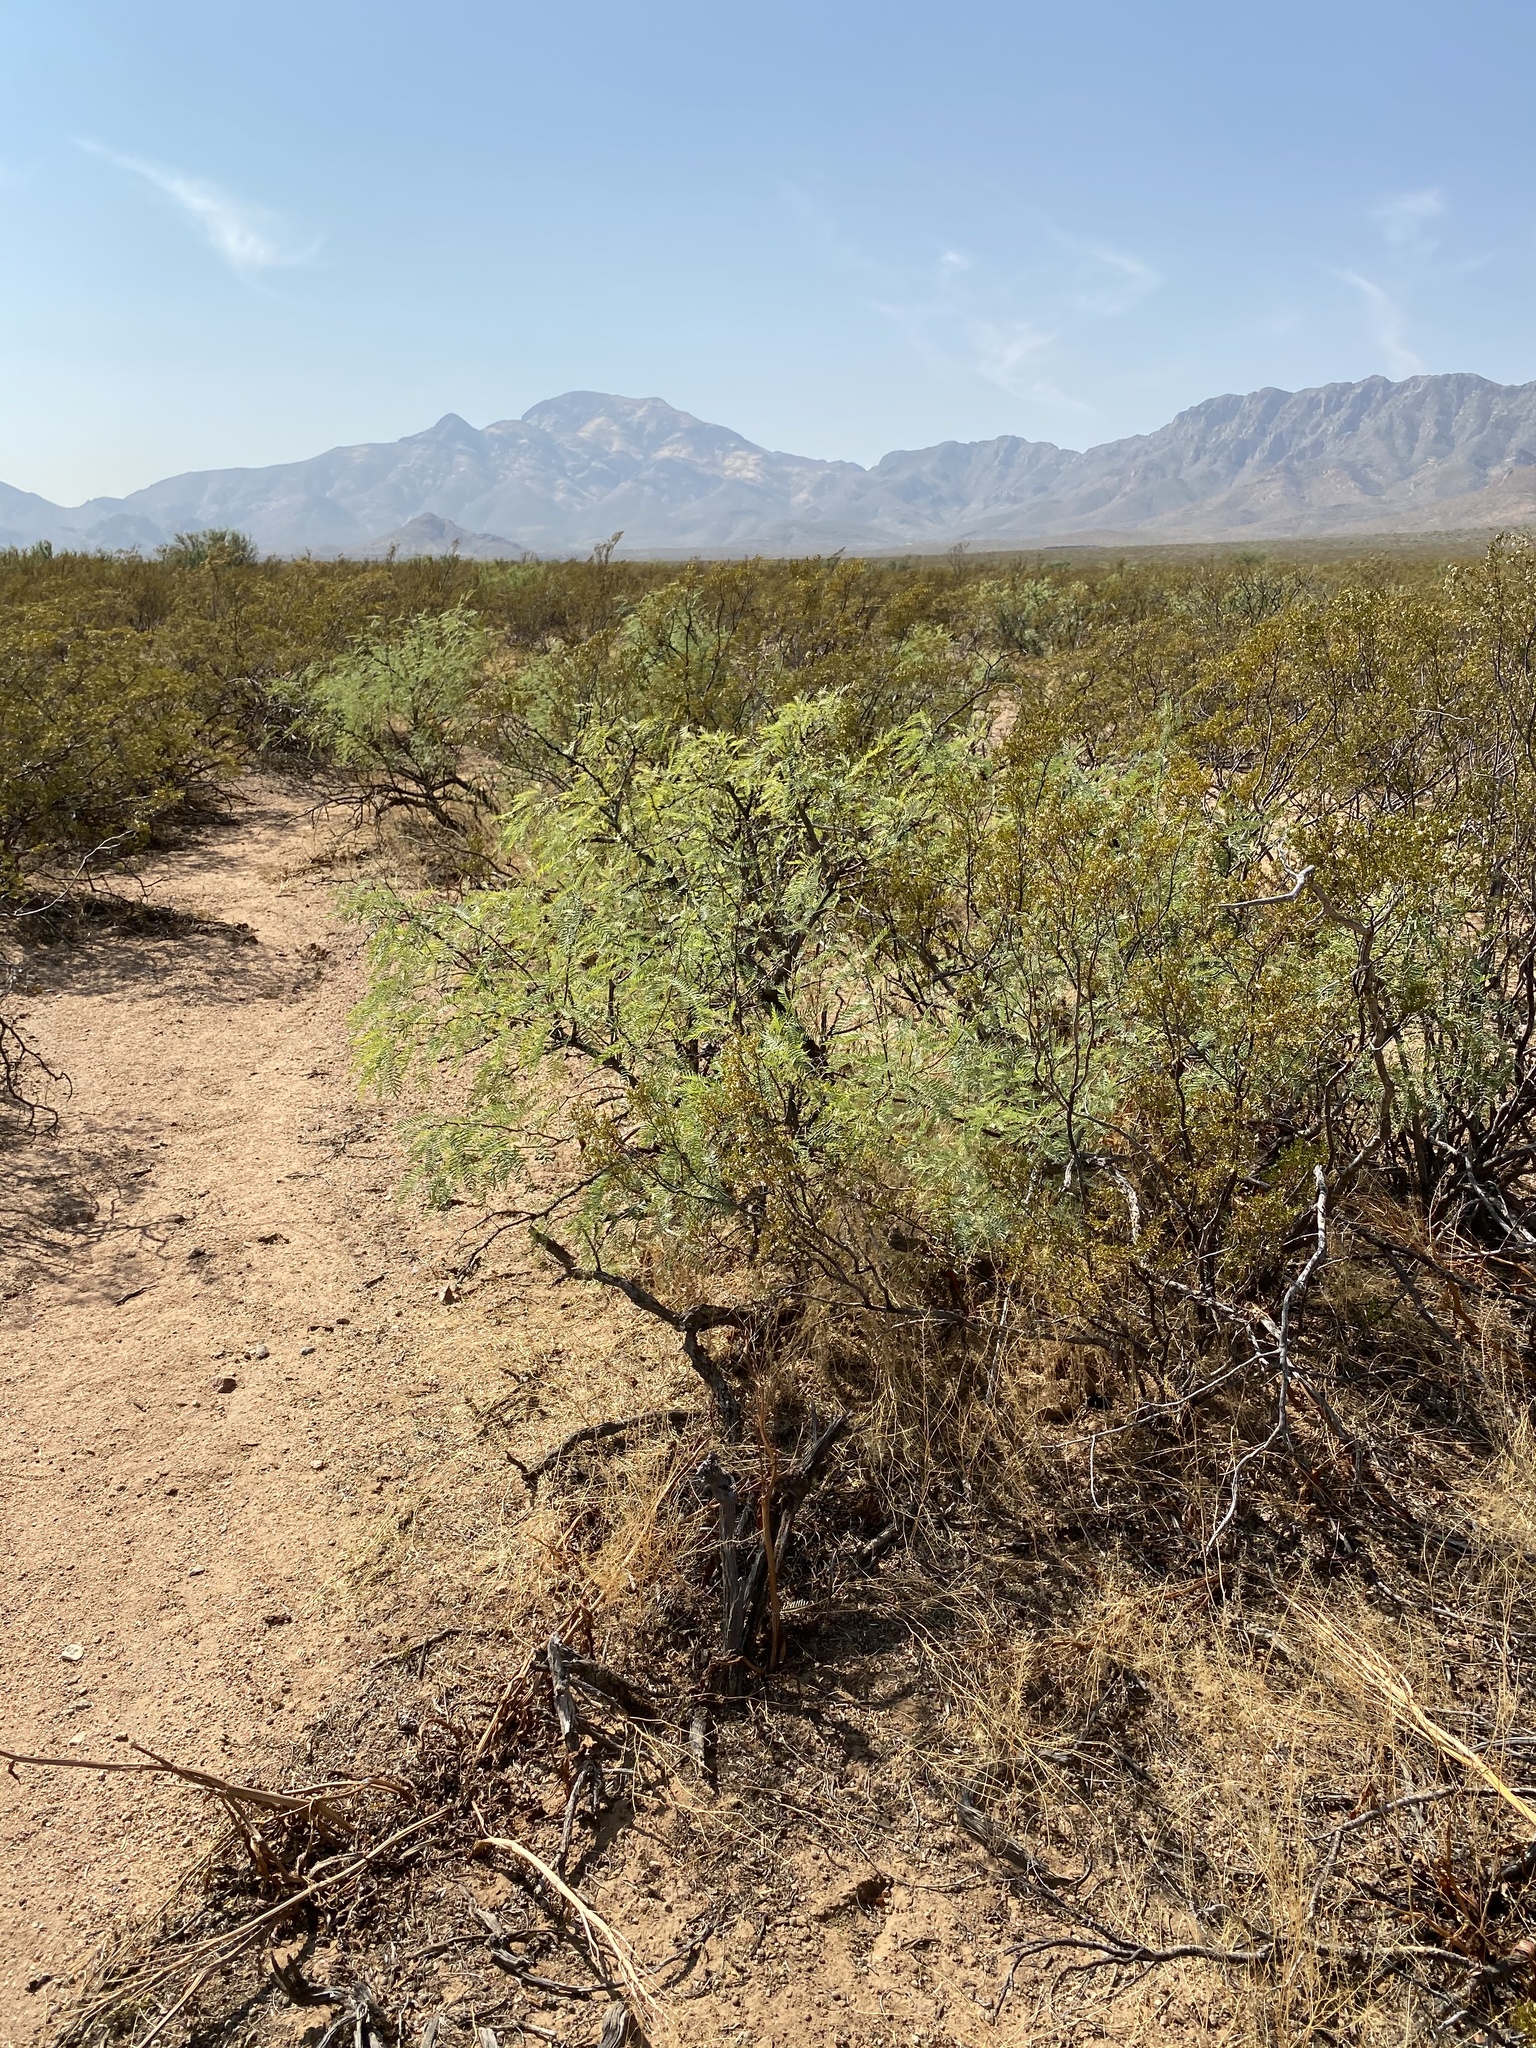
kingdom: Plantae
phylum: Tracheophyta
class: Magnoliopsida
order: Fabales
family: Fabaceae
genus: Prosopis
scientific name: Prosopis glandulosa
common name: Honey mesquite
